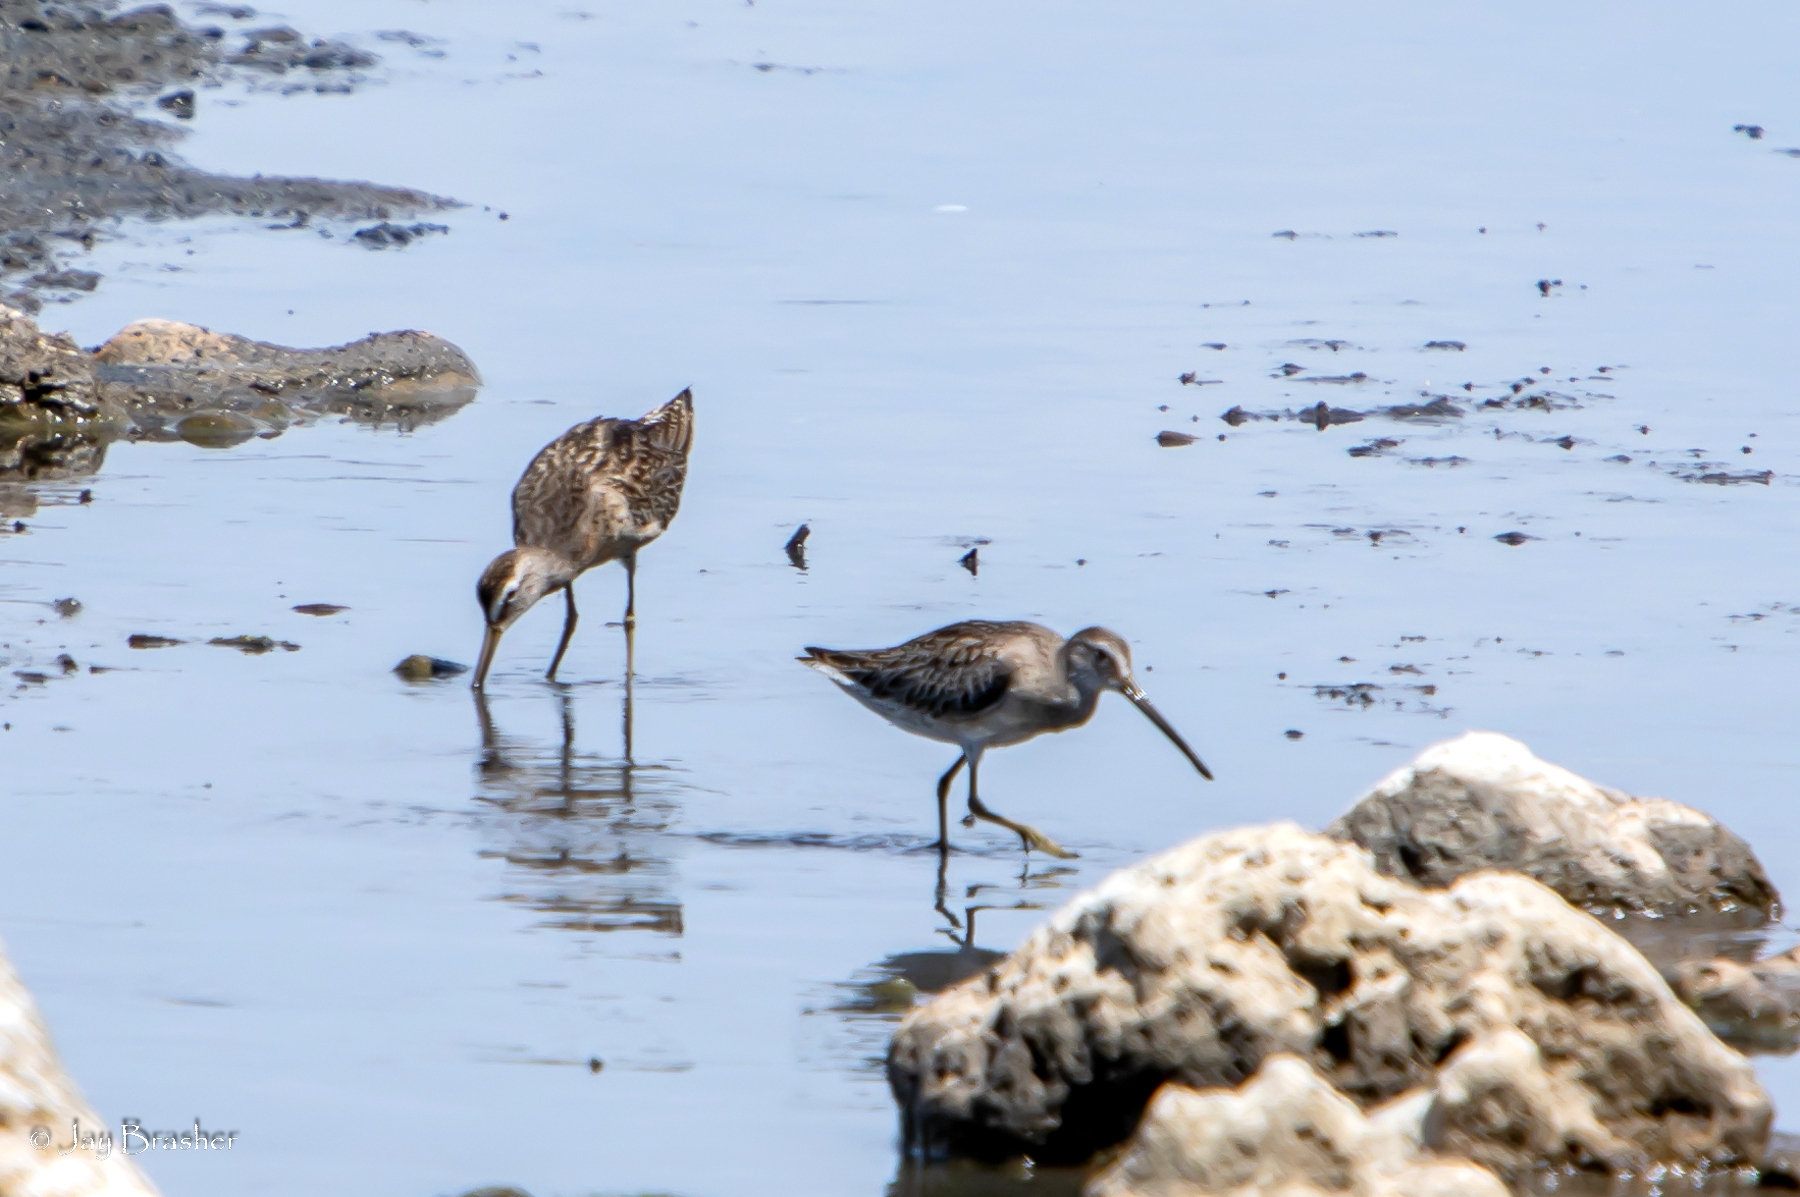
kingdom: Animalia
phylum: Chordata
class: Aves
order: Charadriiformes
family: Scolopacidae
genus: Limnodromus
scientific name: Limnodromus griseus
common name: Short-billed dowitcher
